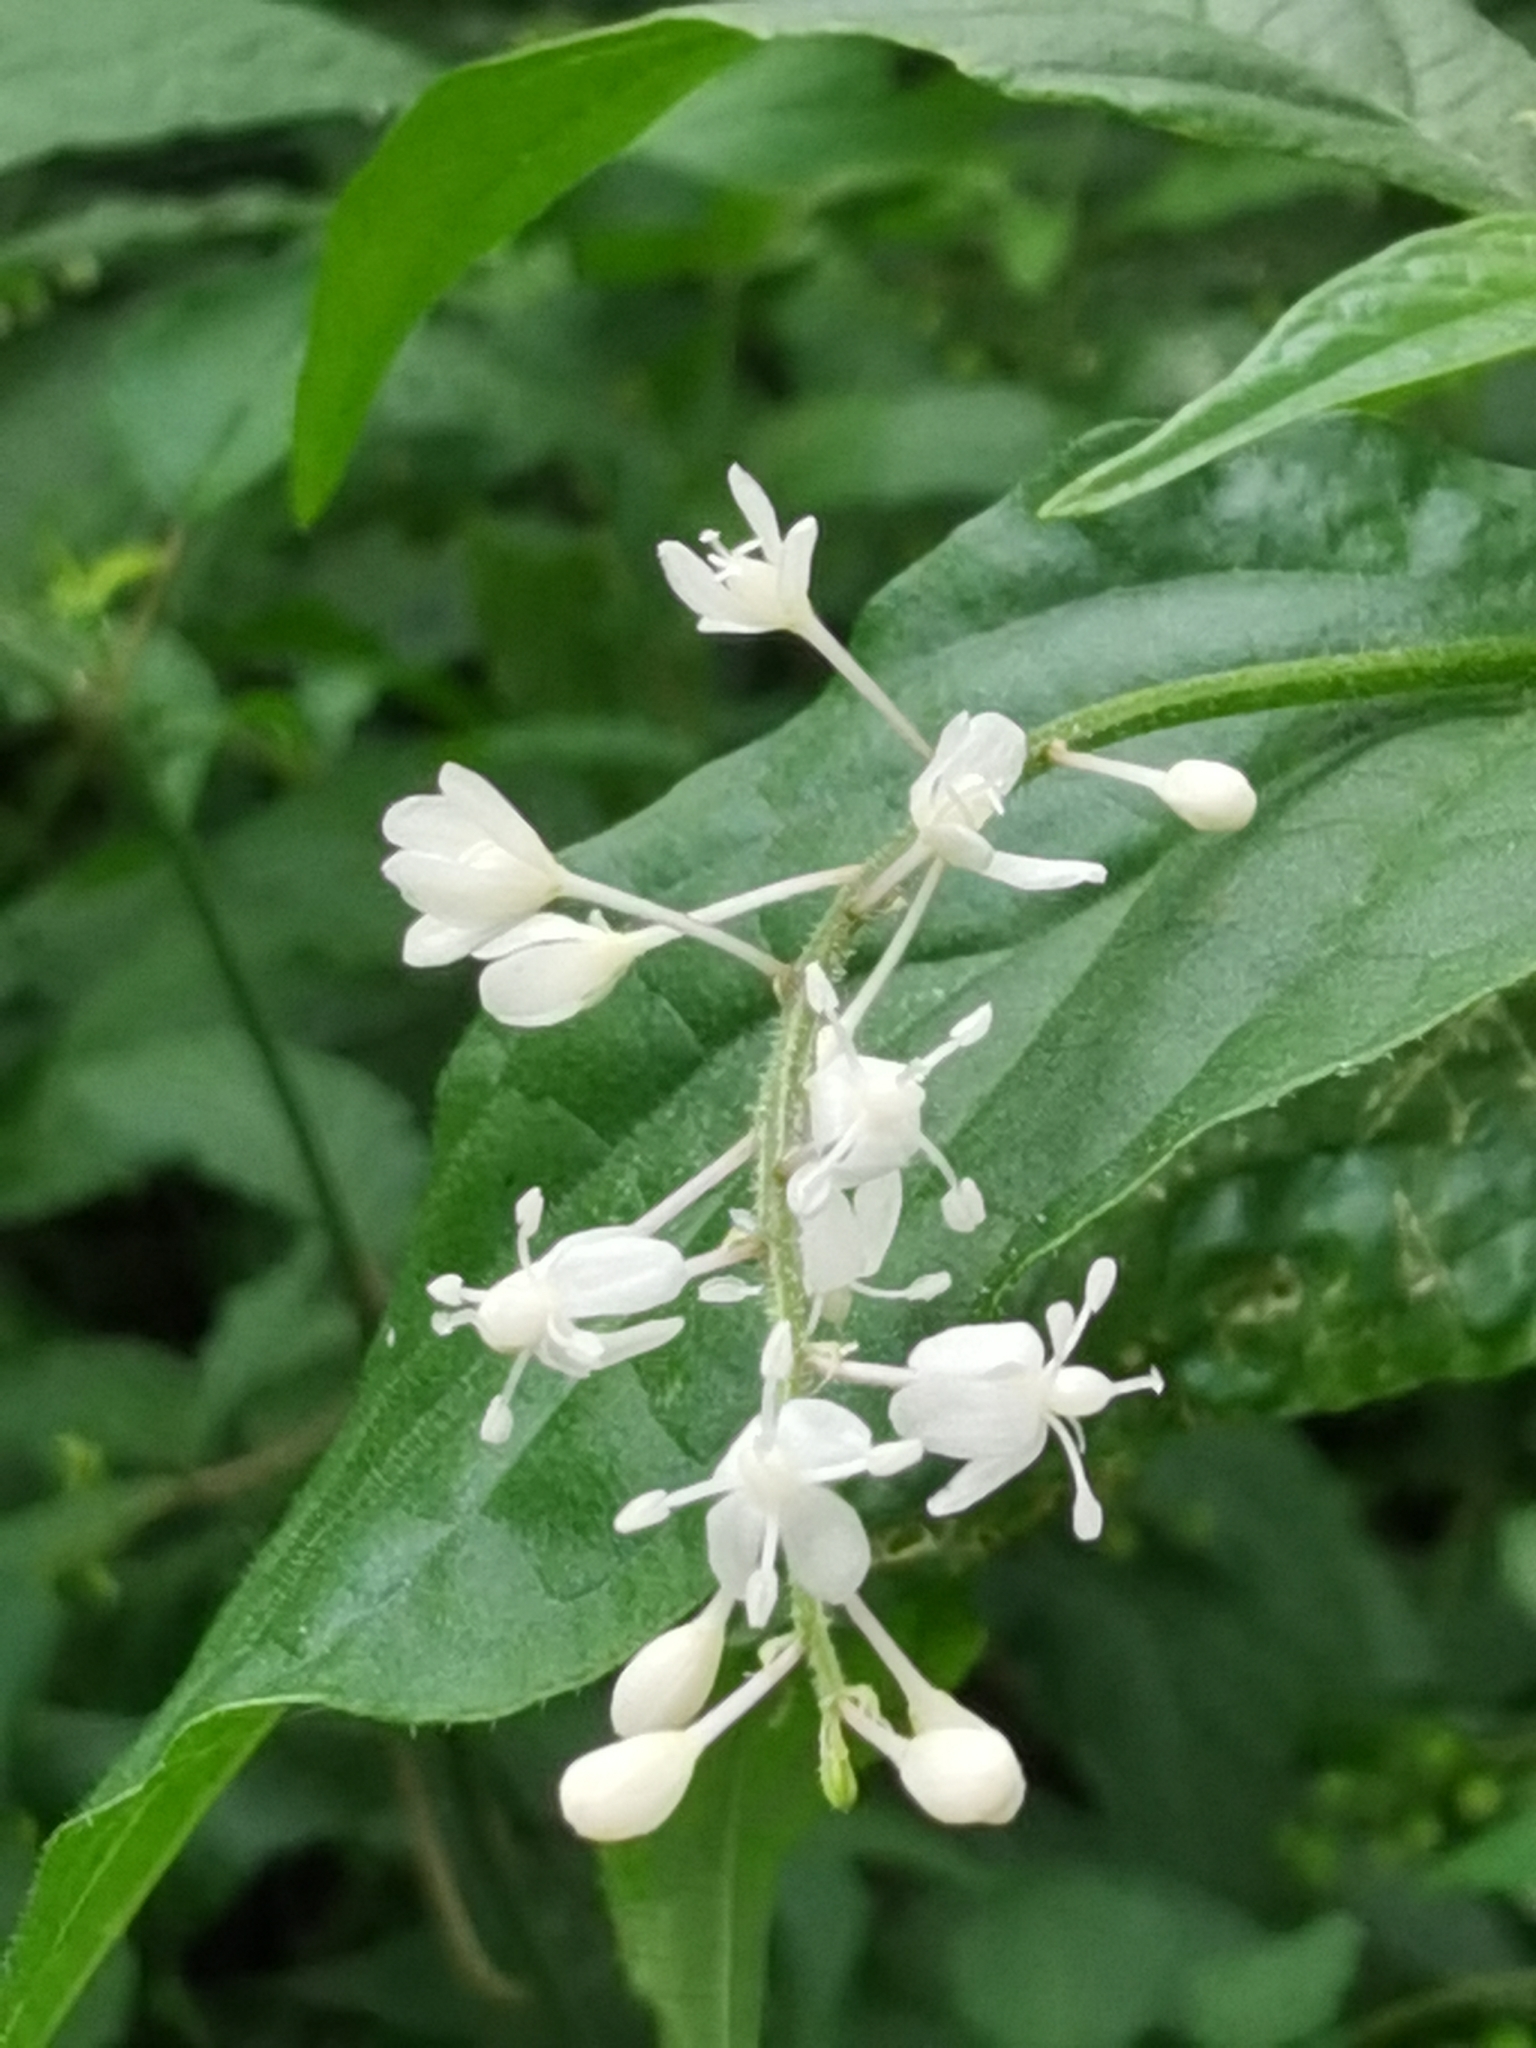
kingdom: Plantae
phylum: Tracheophyta
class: Magnoliopsida
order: Caryophyllales
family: Phytolaccaceae
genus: Rivina
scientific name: Rivina humilis
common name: Rougeplant
